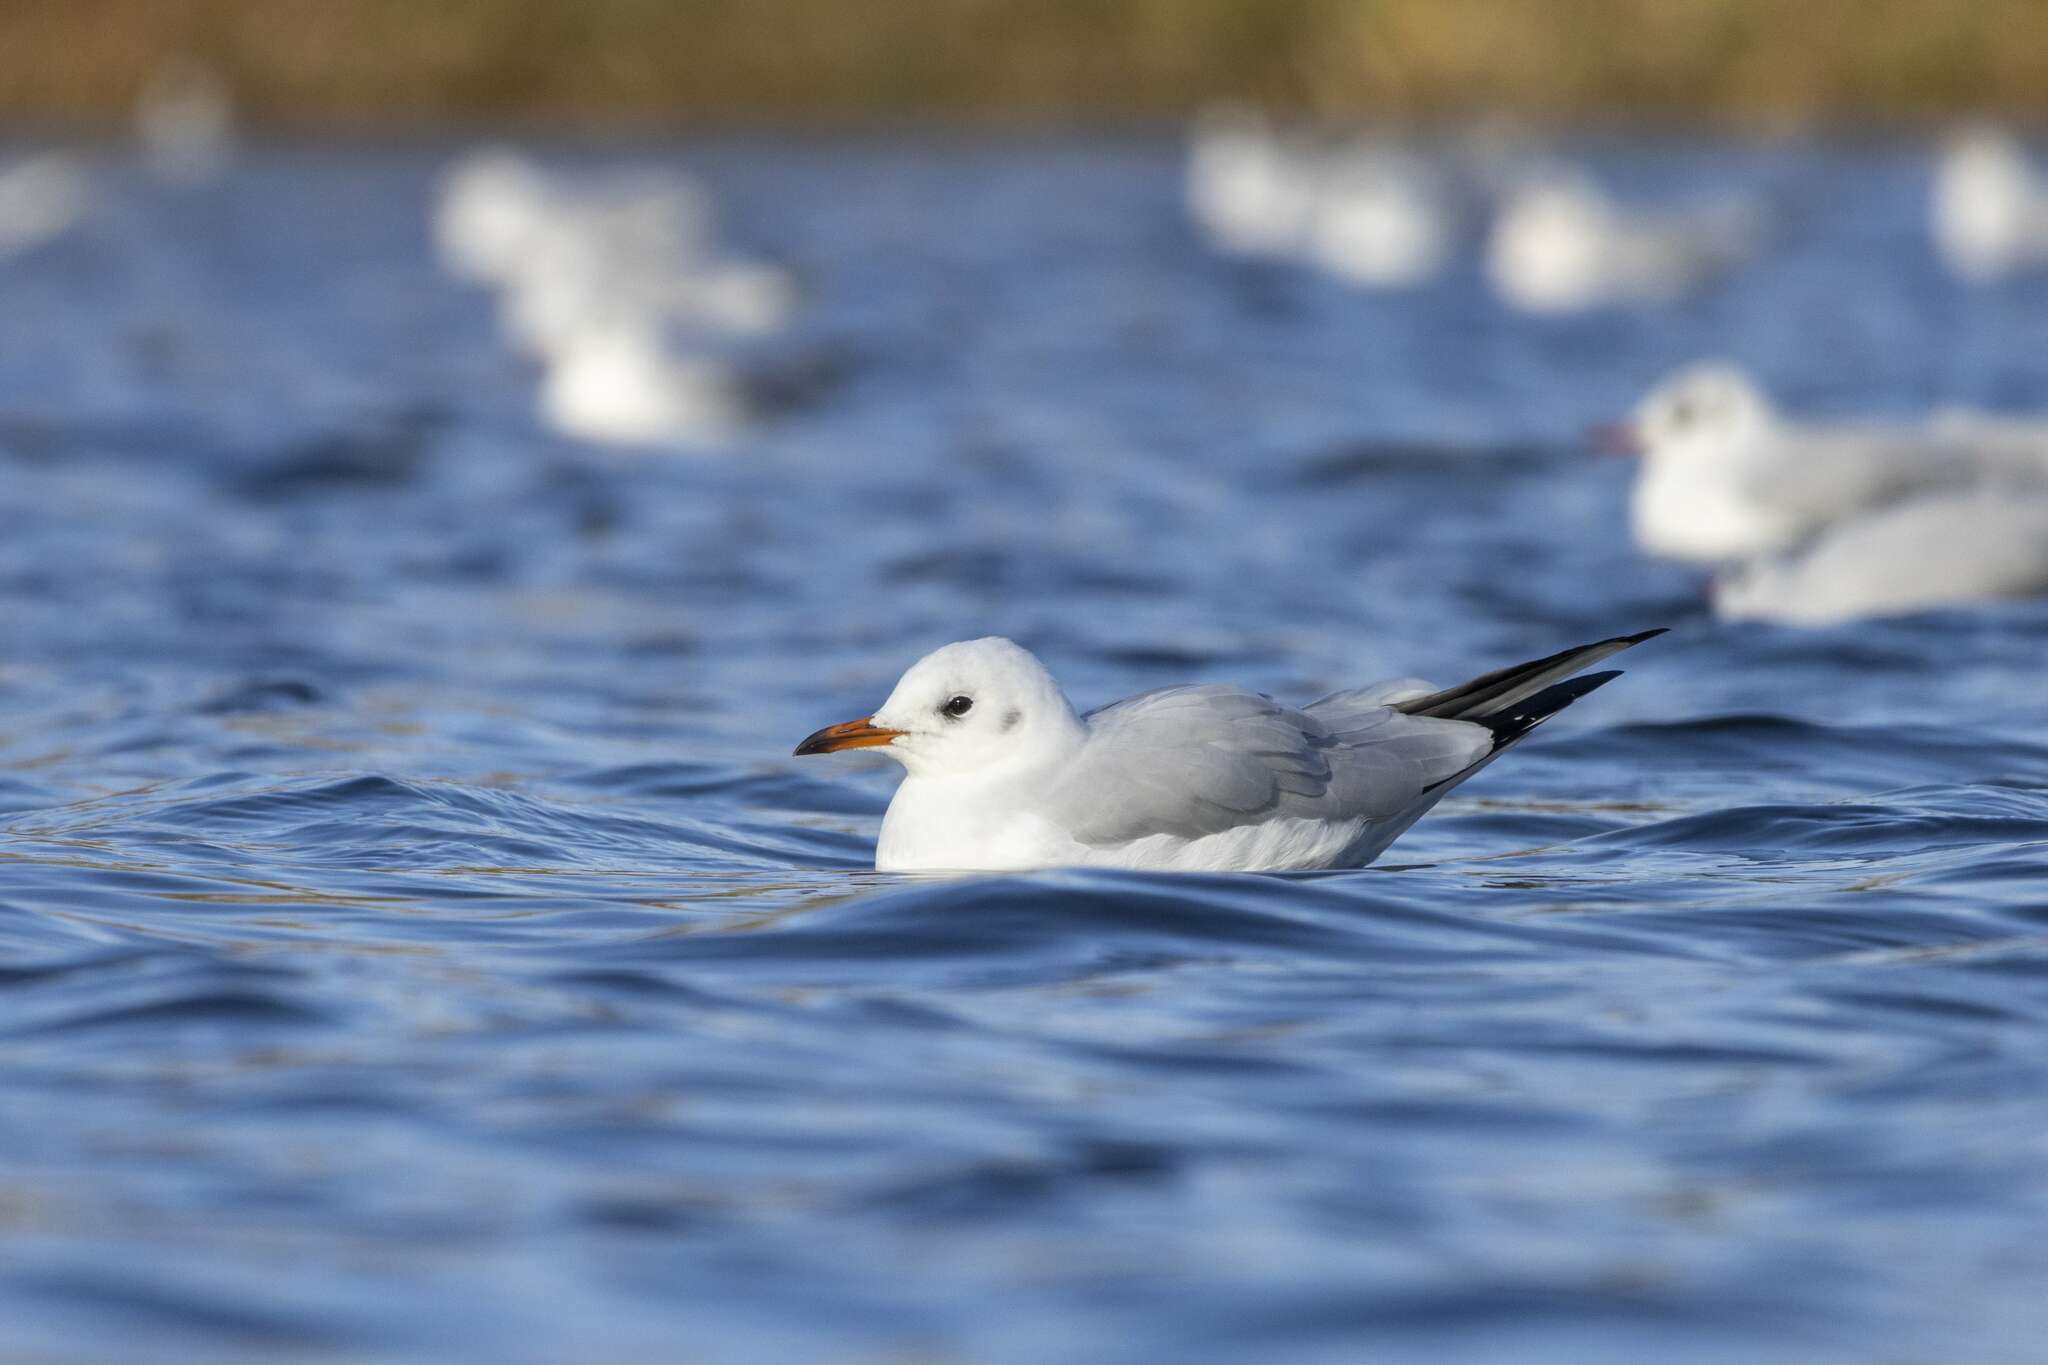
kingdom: Animalia
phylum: Chordata
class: Aves
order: Charadriiformes
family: Laridae
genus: Chroicocephalus
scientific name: Chroicocephalus ridibundus
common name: Black-headed gull
